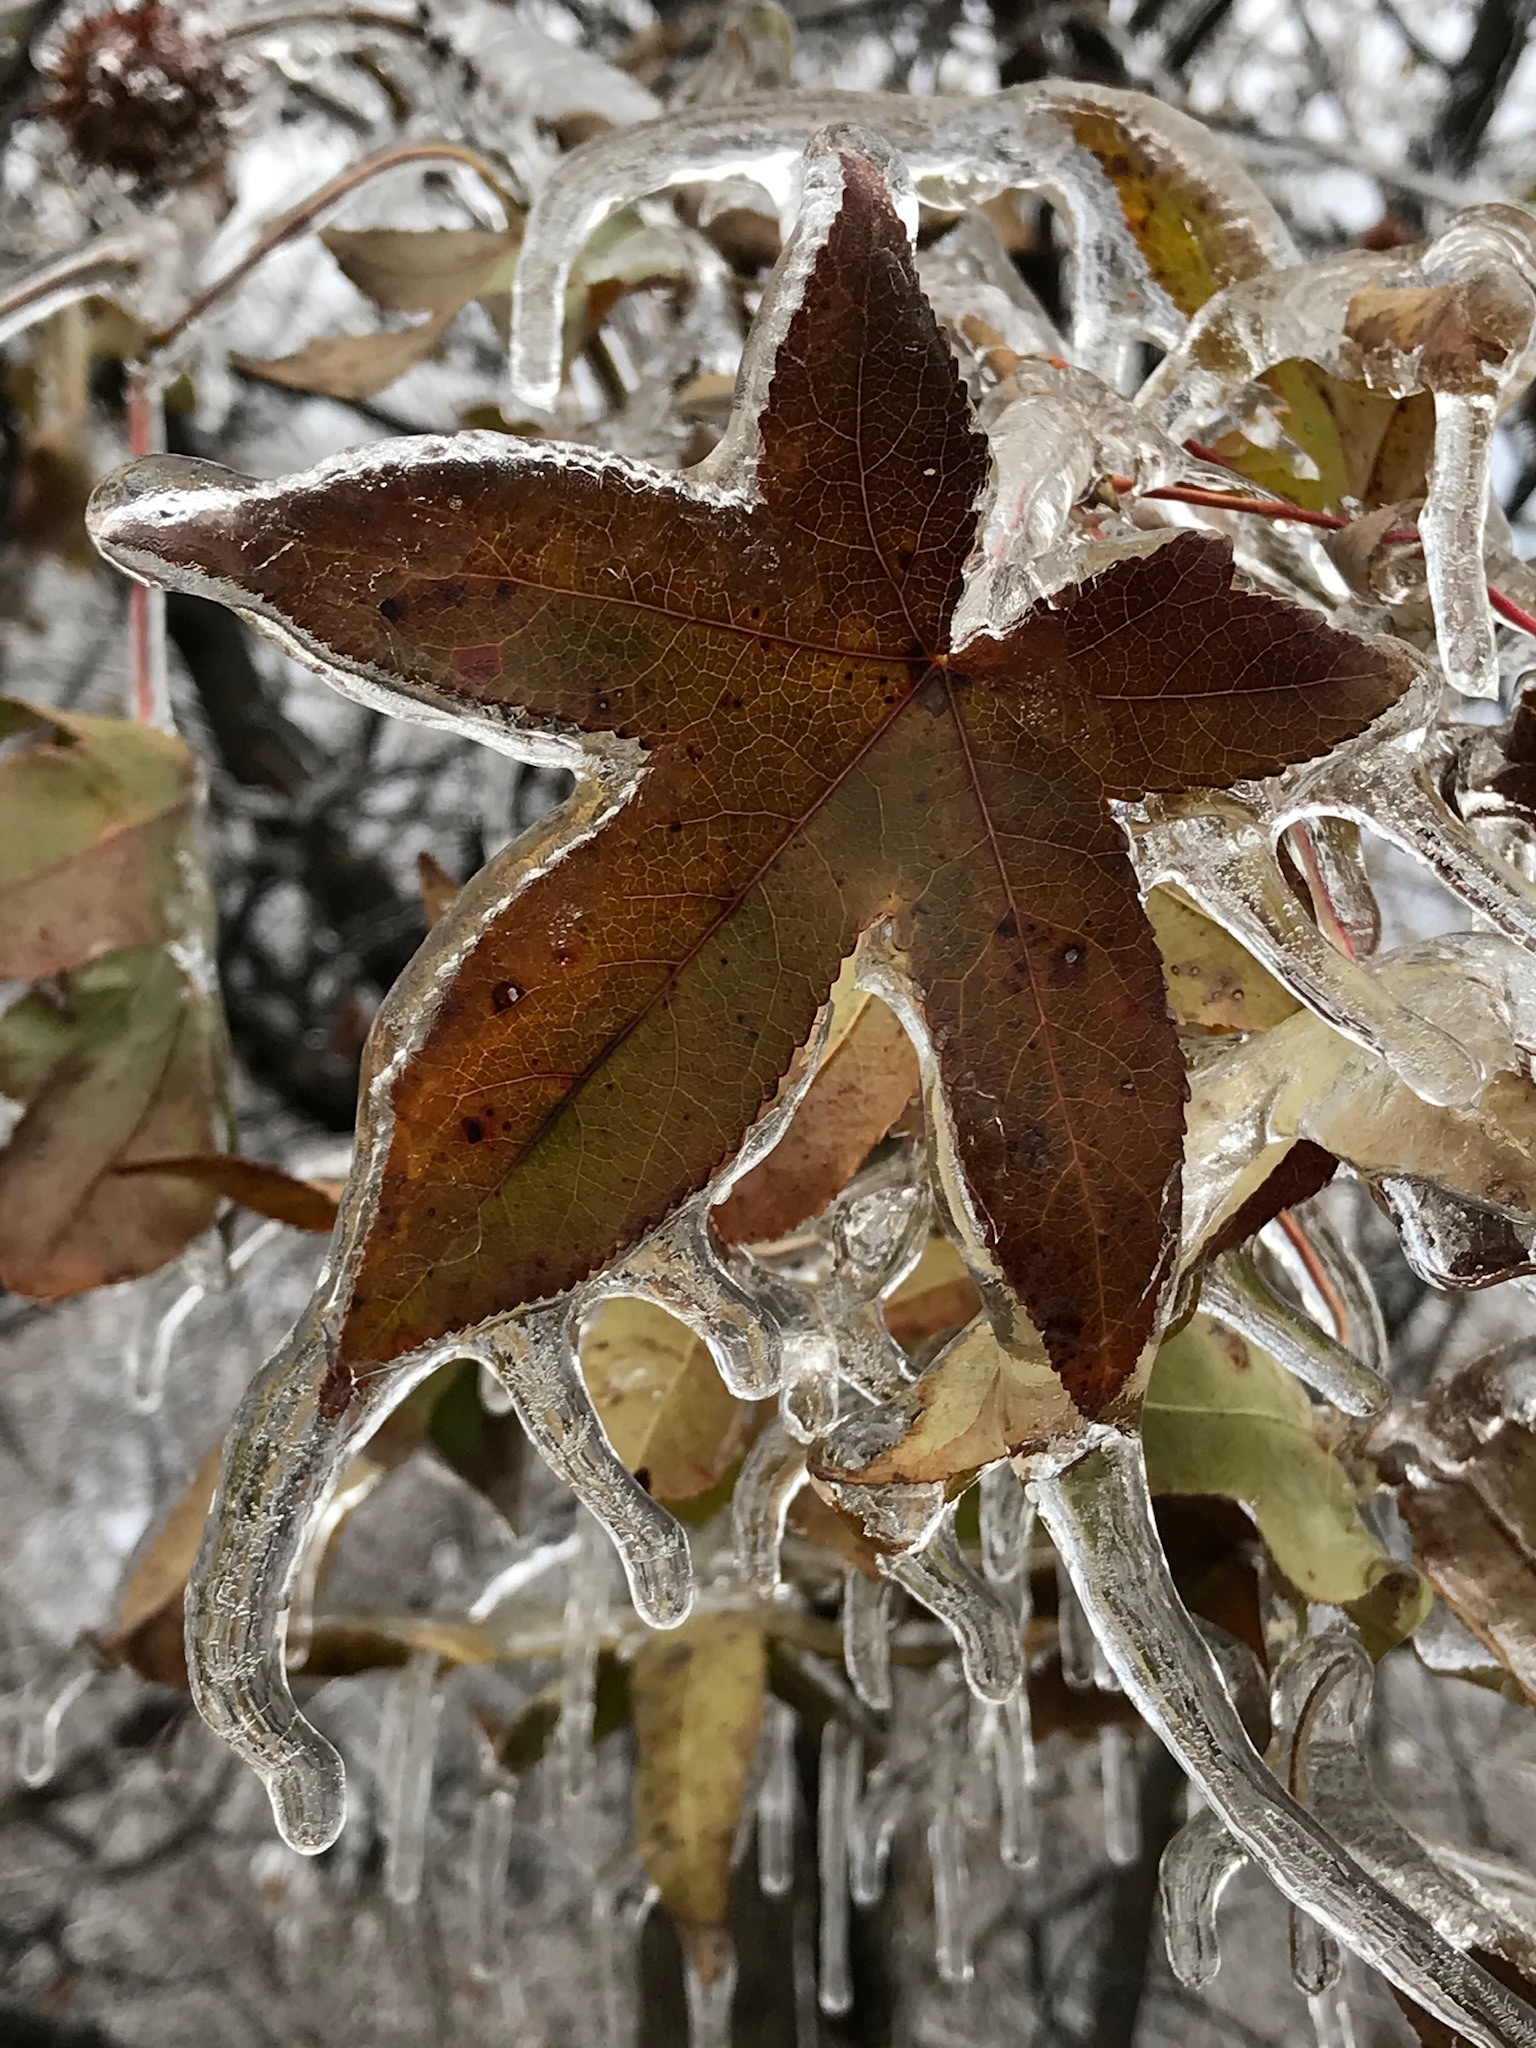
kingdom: Plantae
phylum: Tracheophyta
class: Magnoliopsida
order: Saxifragales
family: Altingiaceae
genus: Liquidambar
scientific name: Liquidambar styraciflua
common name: Sweet gum
